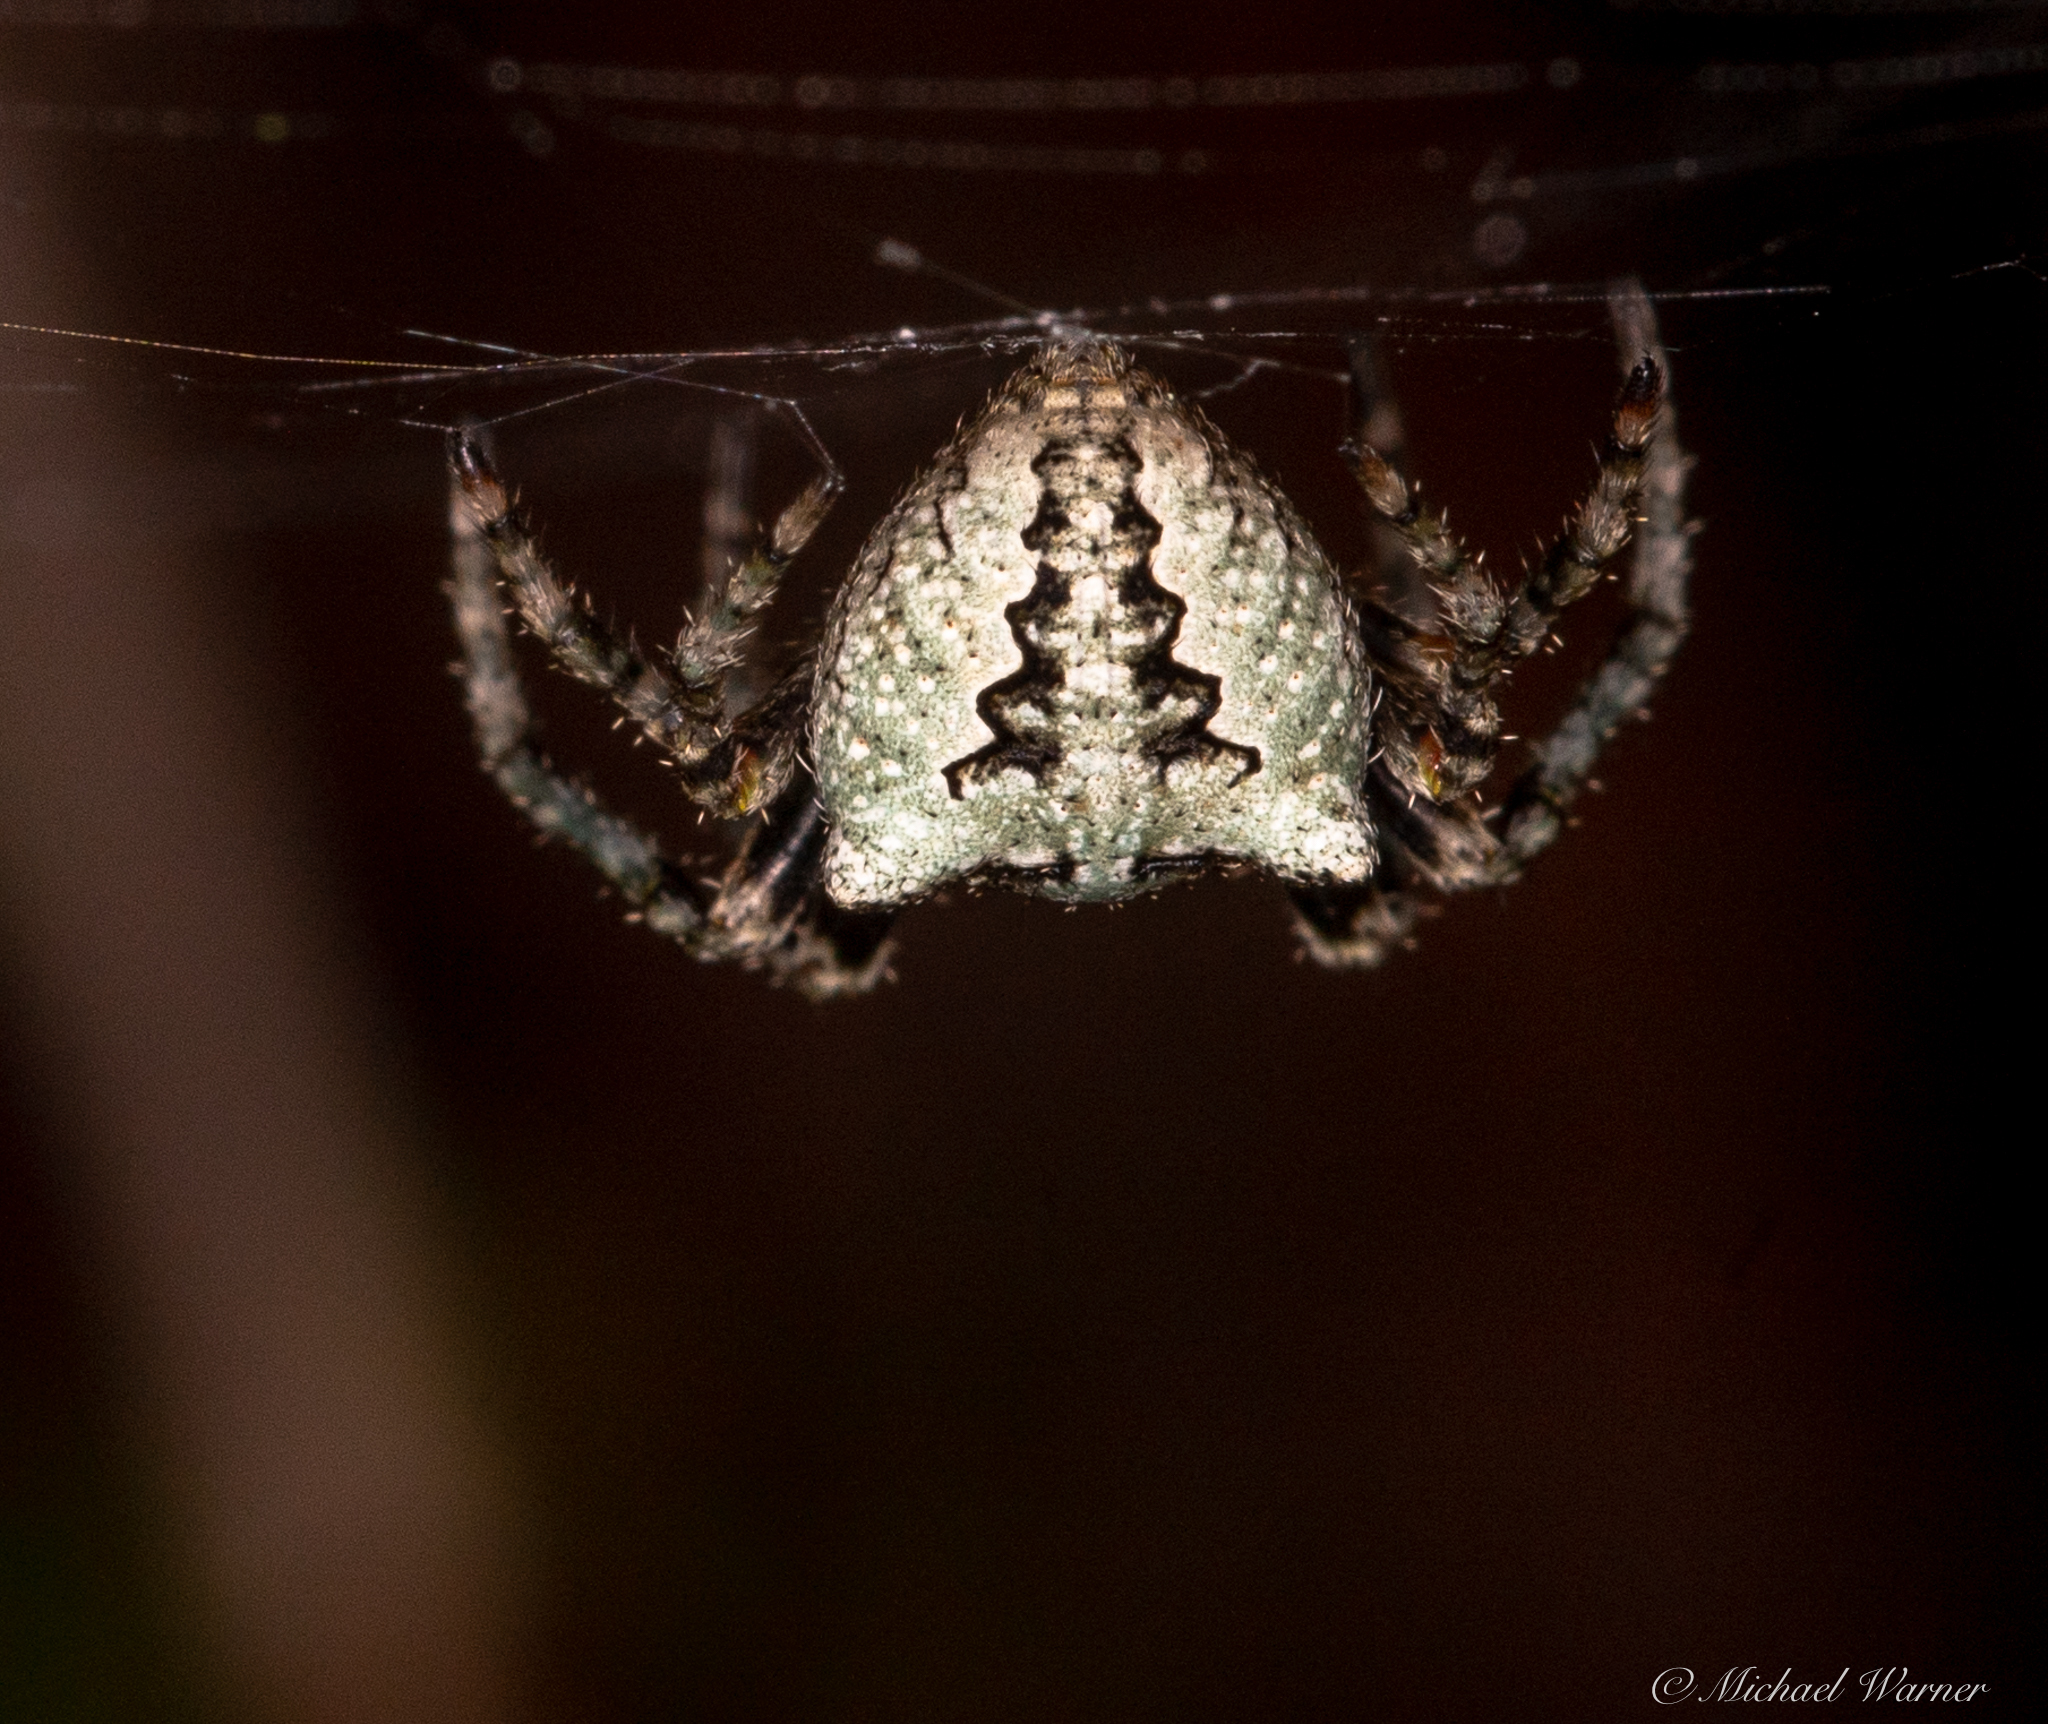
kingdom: Animalia
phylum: Arthropoda
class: Arachnida
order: Araneae
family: Araneidae
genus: Araneus
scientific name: Araneus andrewsi
